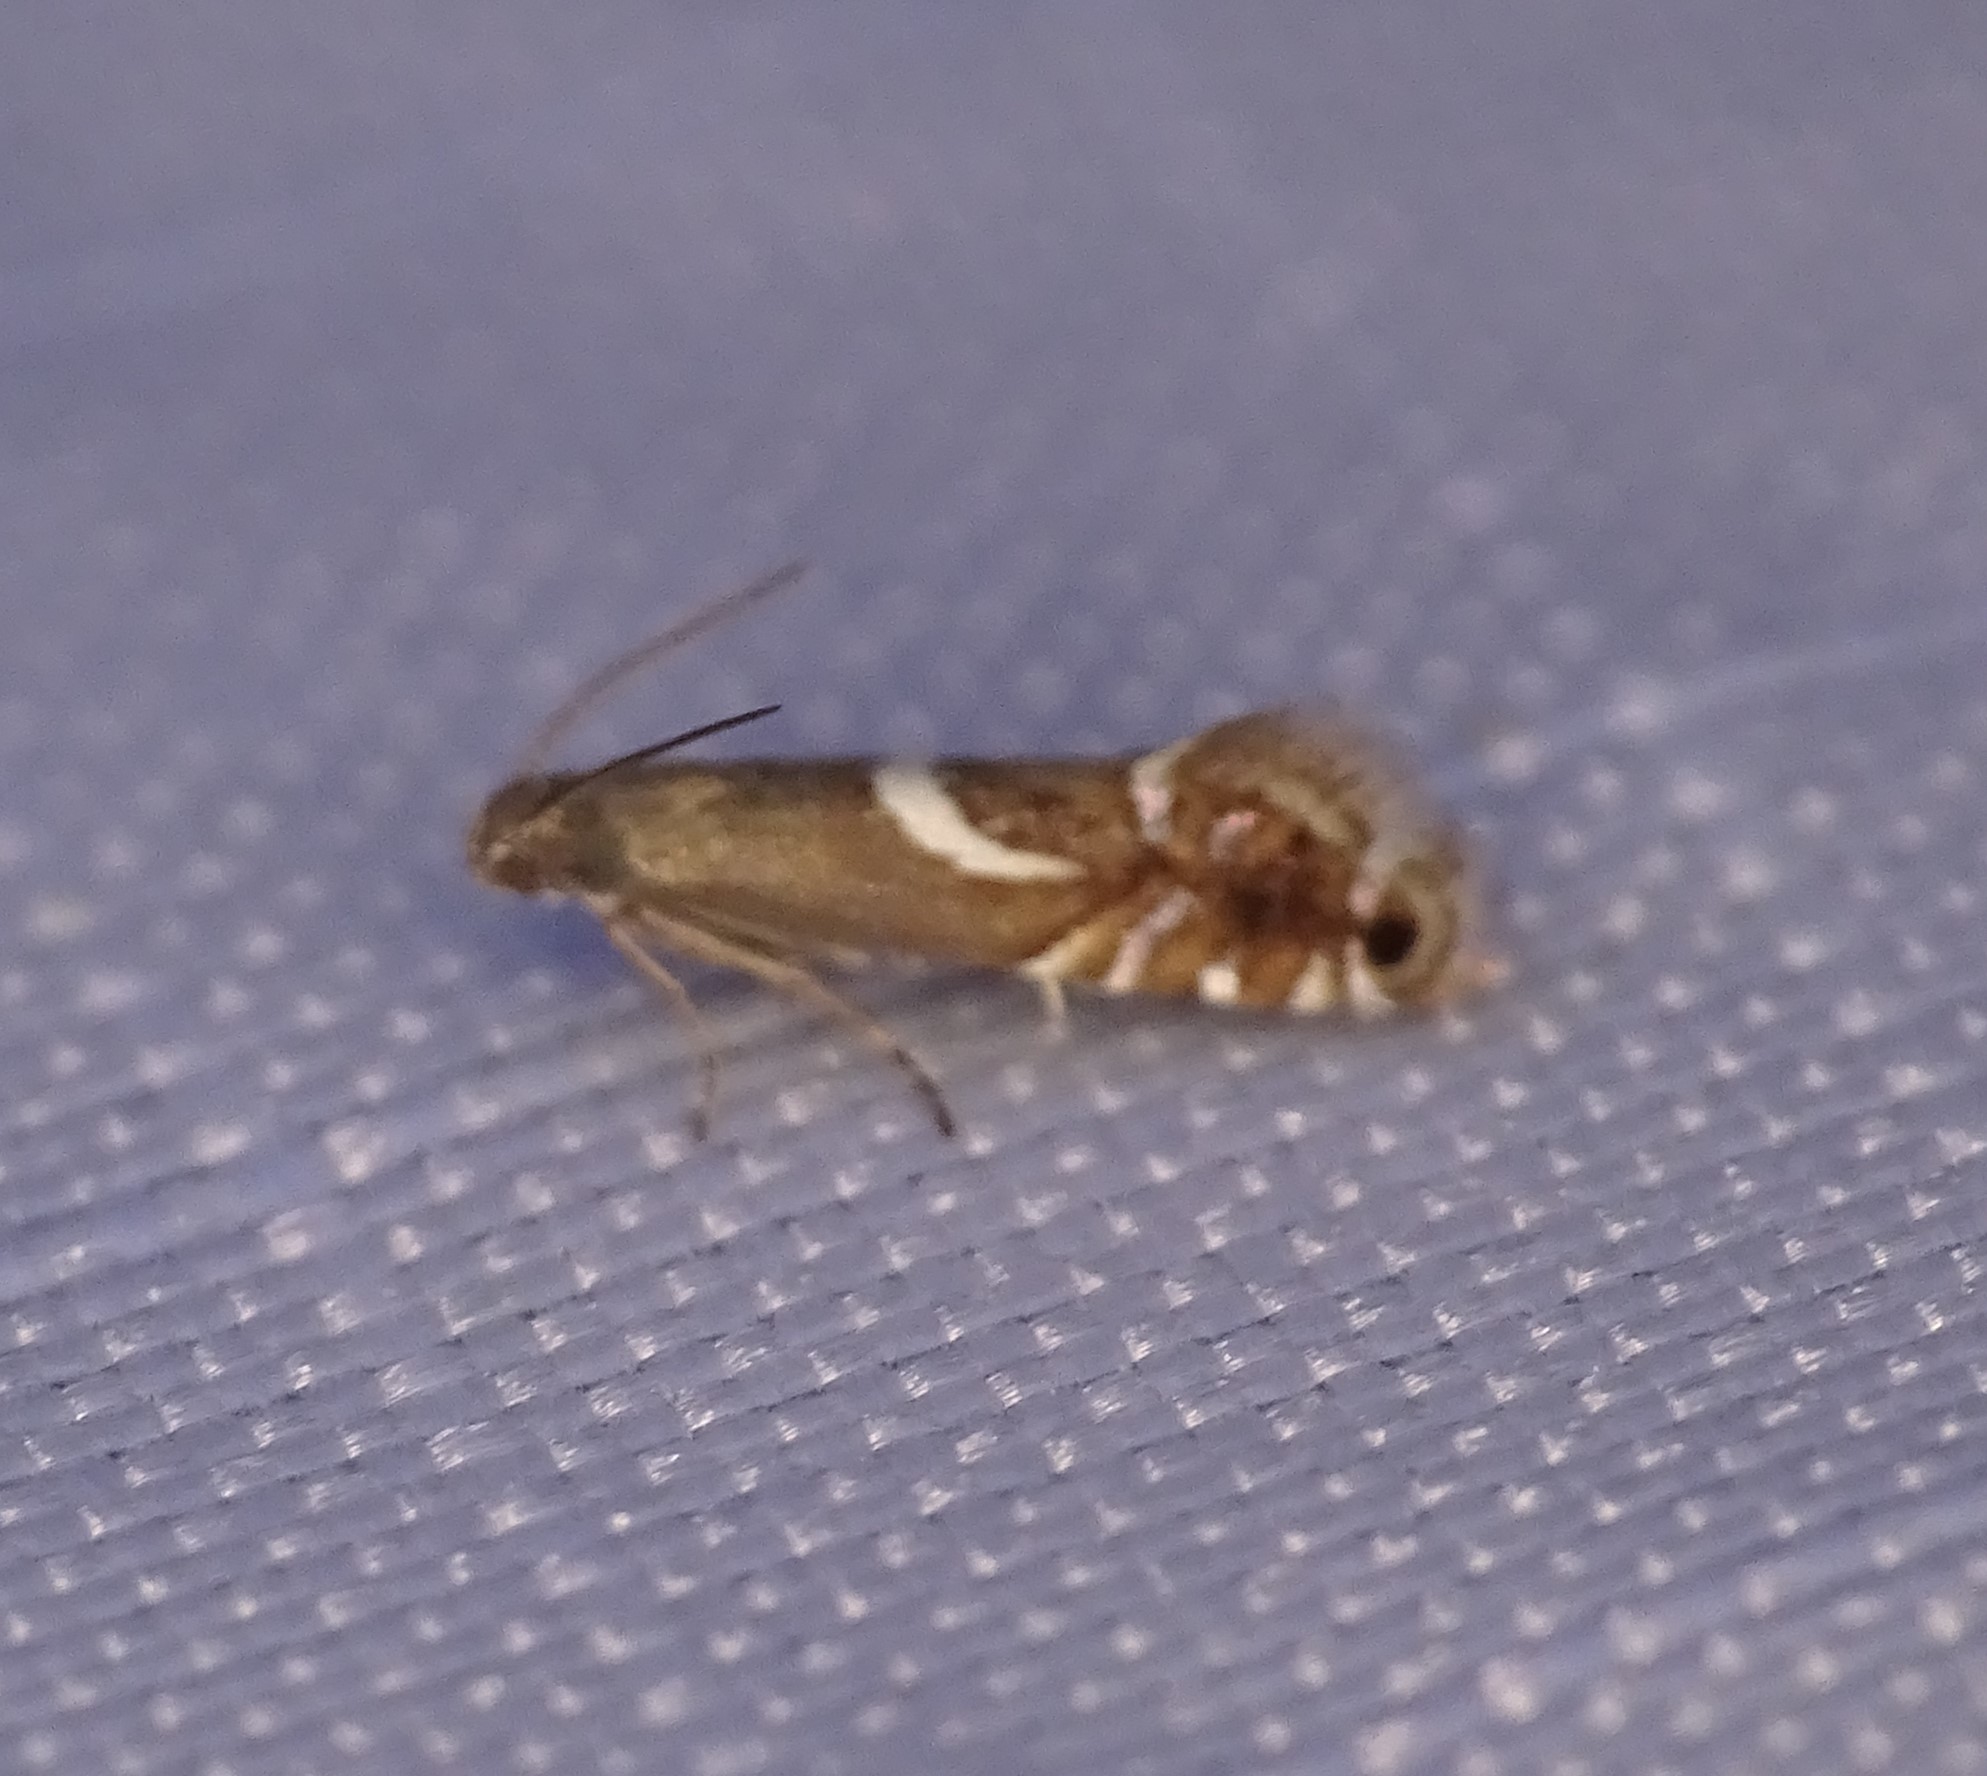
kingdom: Animalia
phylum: Arthropoda
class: Insecta
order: Lepidoptera
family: Glyphipterigidae
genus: Glyphipterix
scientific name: Glyphipterix Diploschizia impigritella
